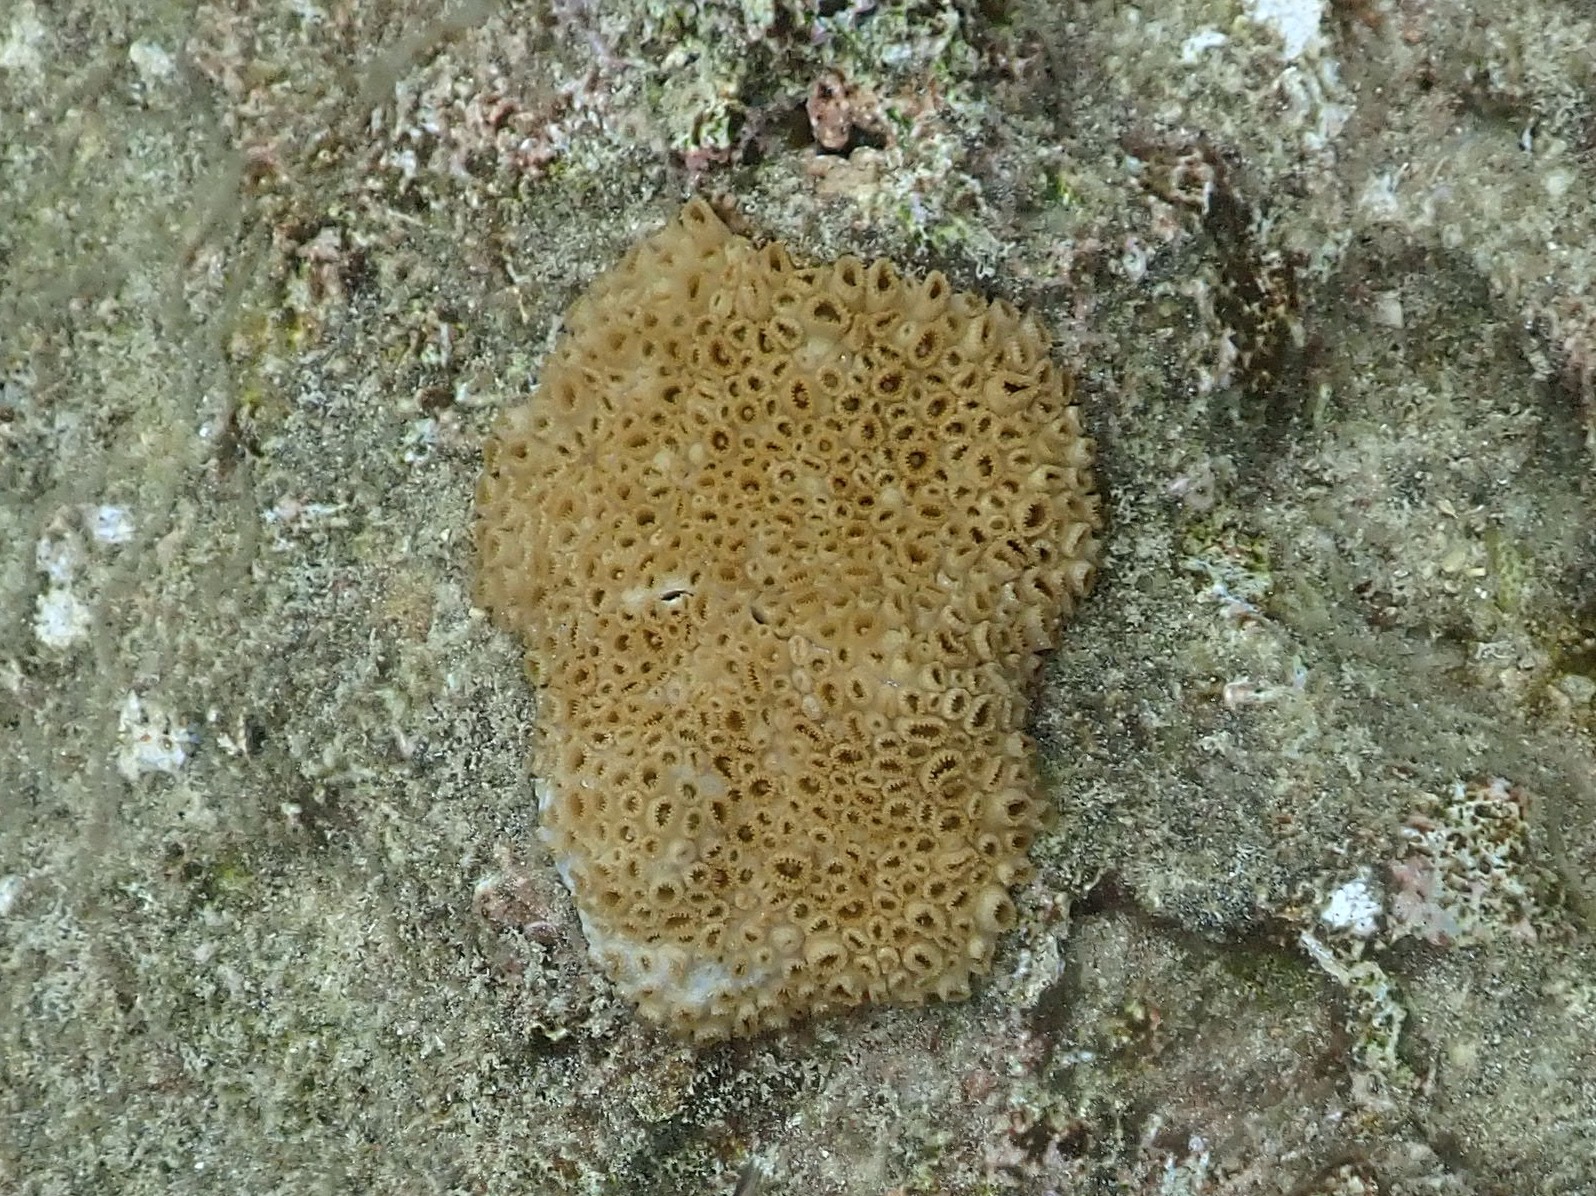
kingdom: Animalia
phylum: Cnidaria
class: Anthozoa
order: Zoantharia
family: Sphenopidae
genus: Palythoa
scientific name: Palythoa caribaeorum
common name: Encrusting colonial anemone
